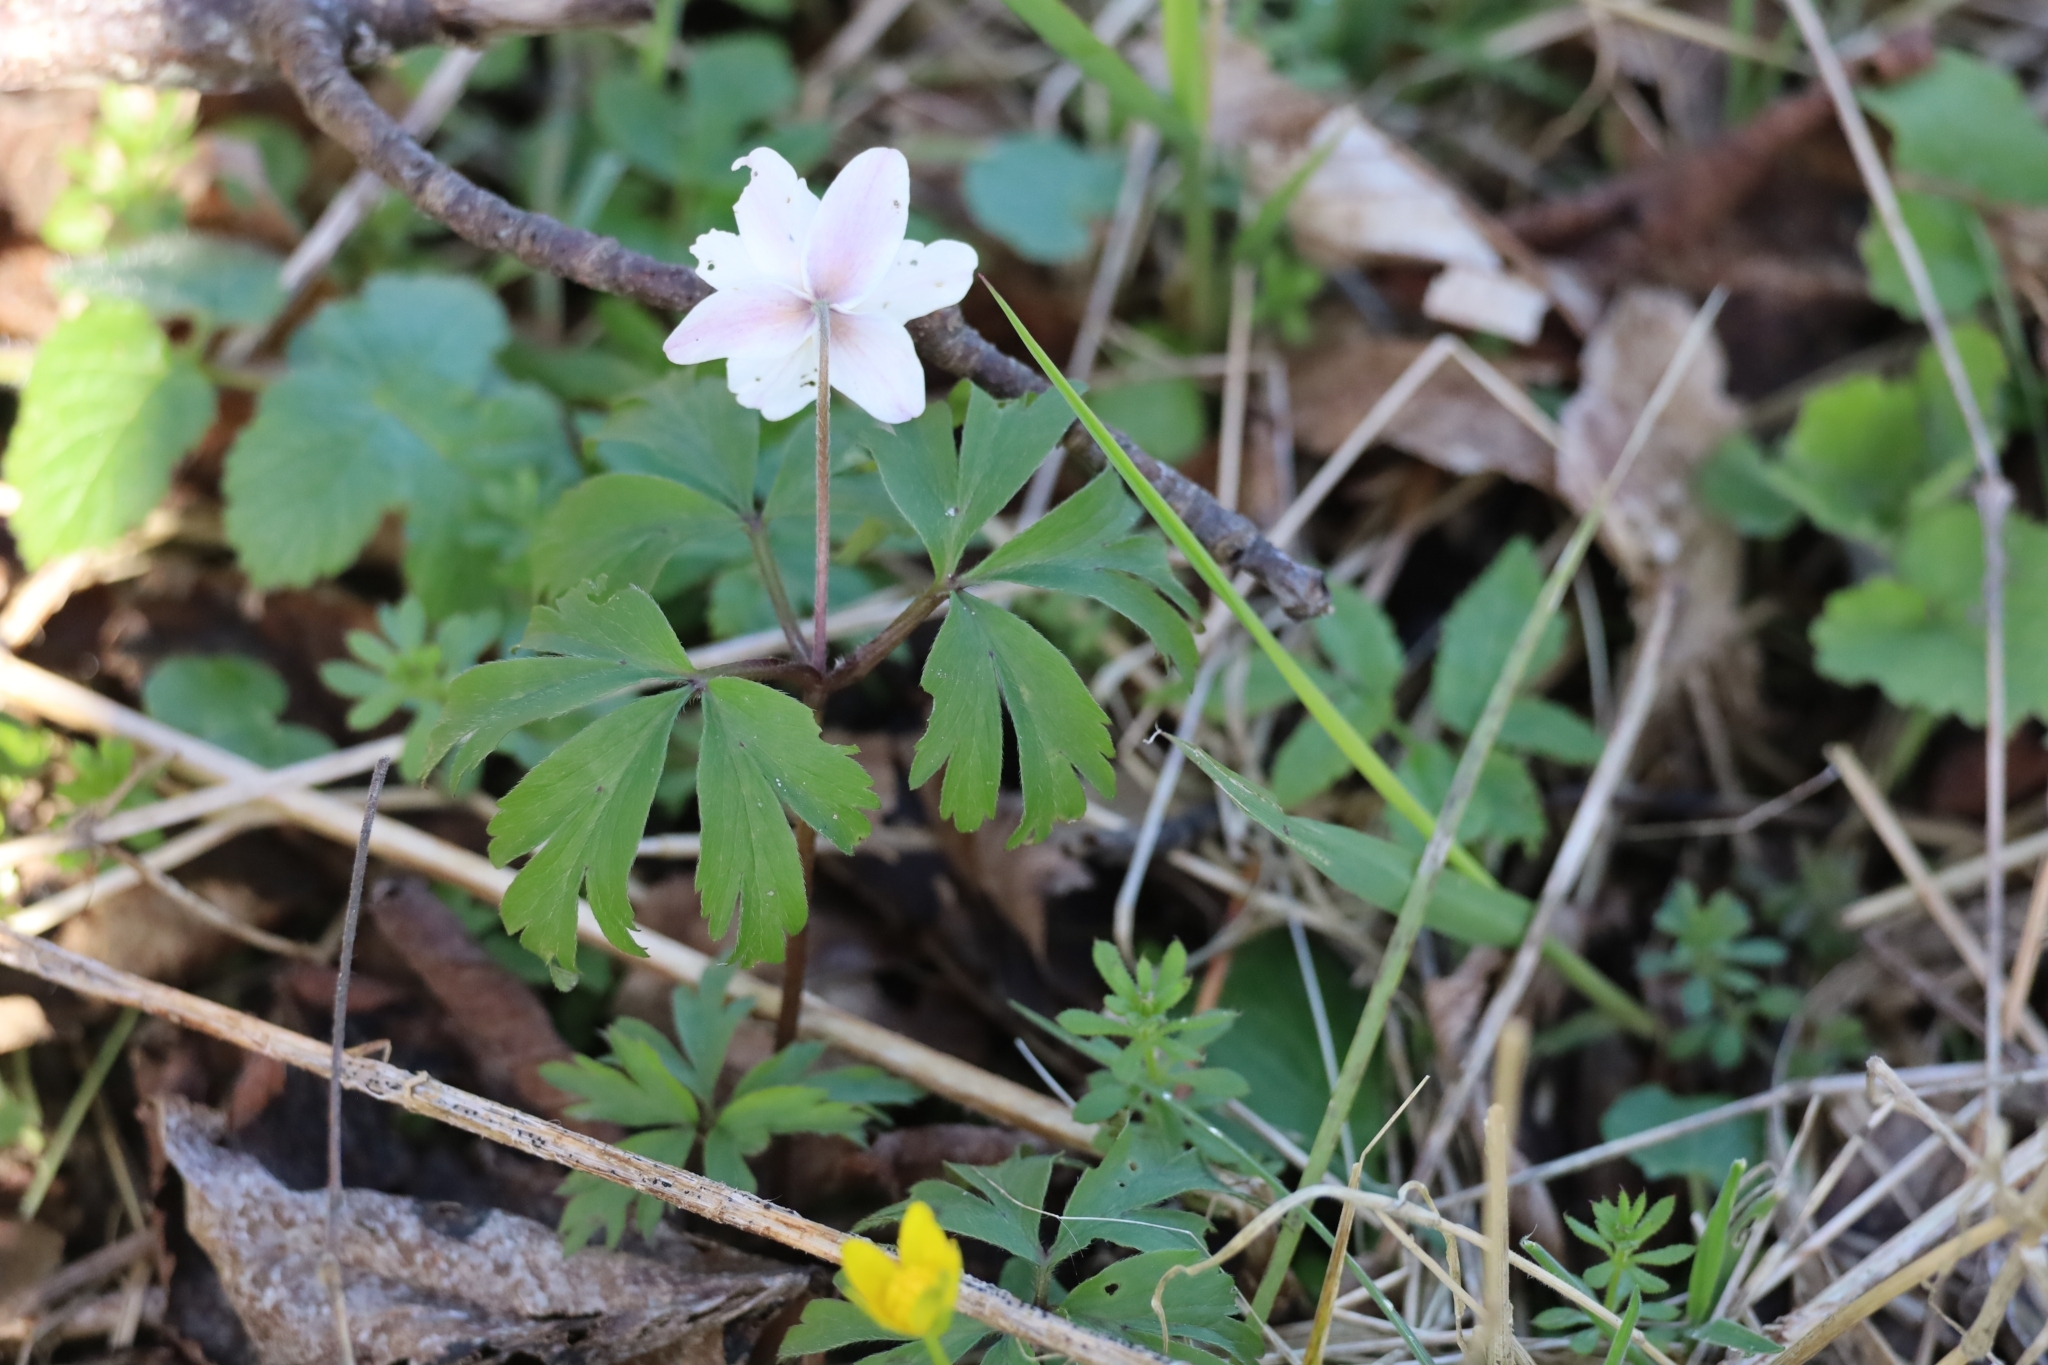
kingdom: Plantae
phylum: Tracheophyta
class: Magnoliopsida
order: Ranunculales
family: Ranunculaceae
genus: Anemone
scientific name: Anemone nemorosa
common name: Wood anemone
